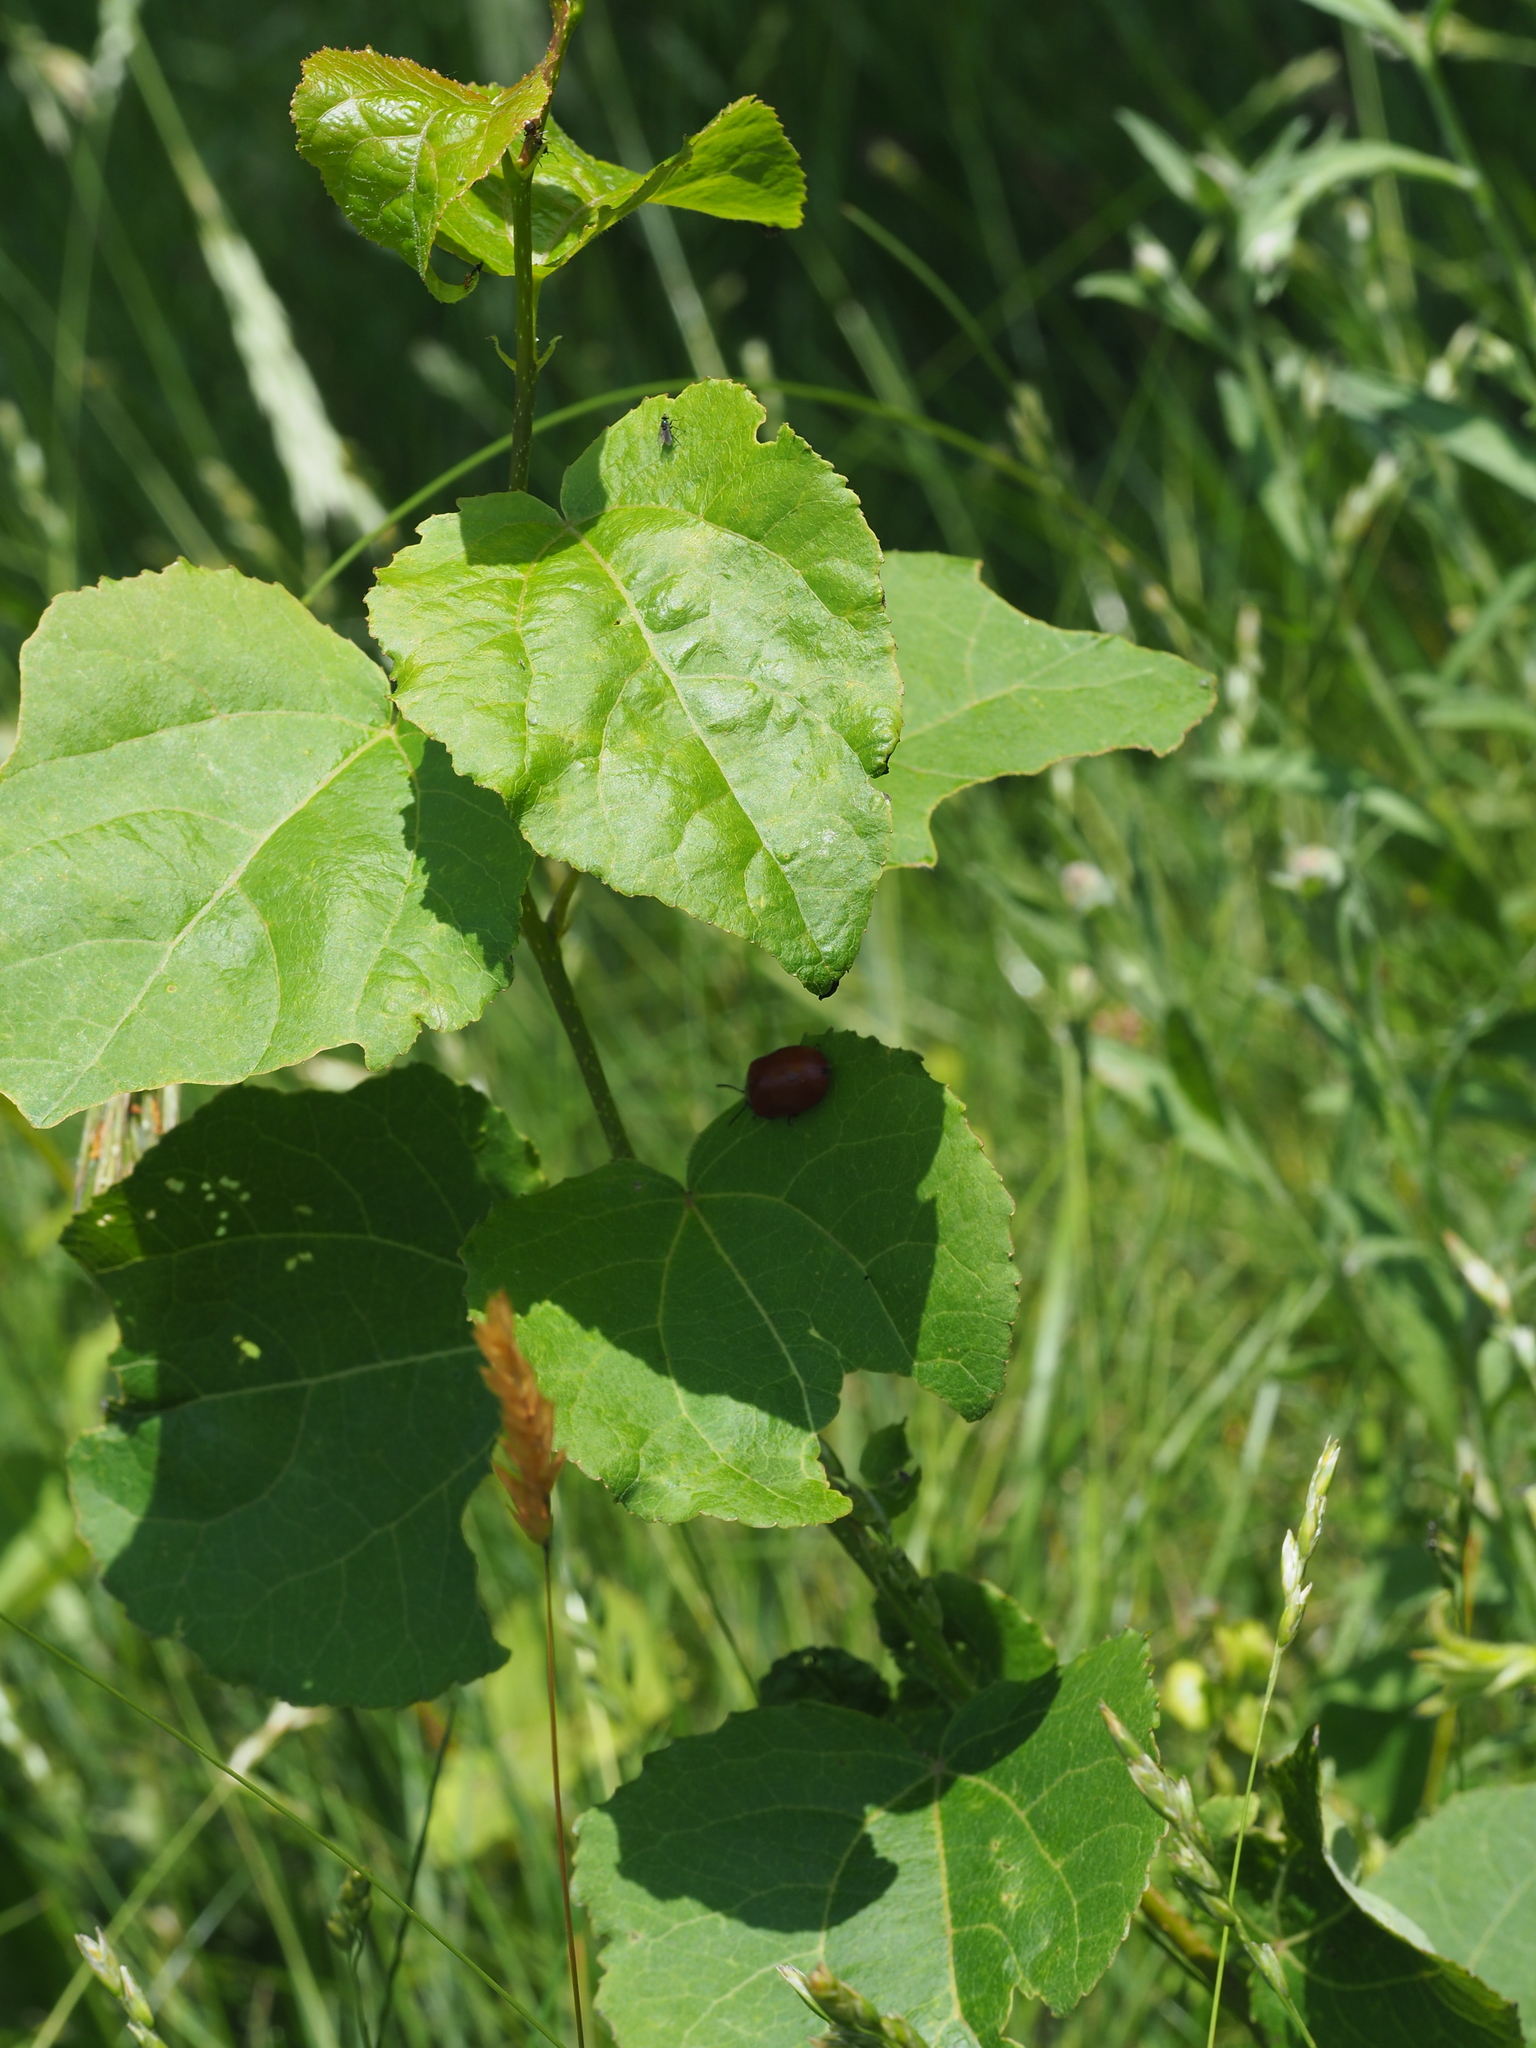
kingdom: Animalia
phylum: Arthropoda
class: Insecta
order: Coleoptera
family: Chrysomelidae
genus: Chrysomela
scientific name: Chrysomela populi
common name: Red poplar leaf beetle
